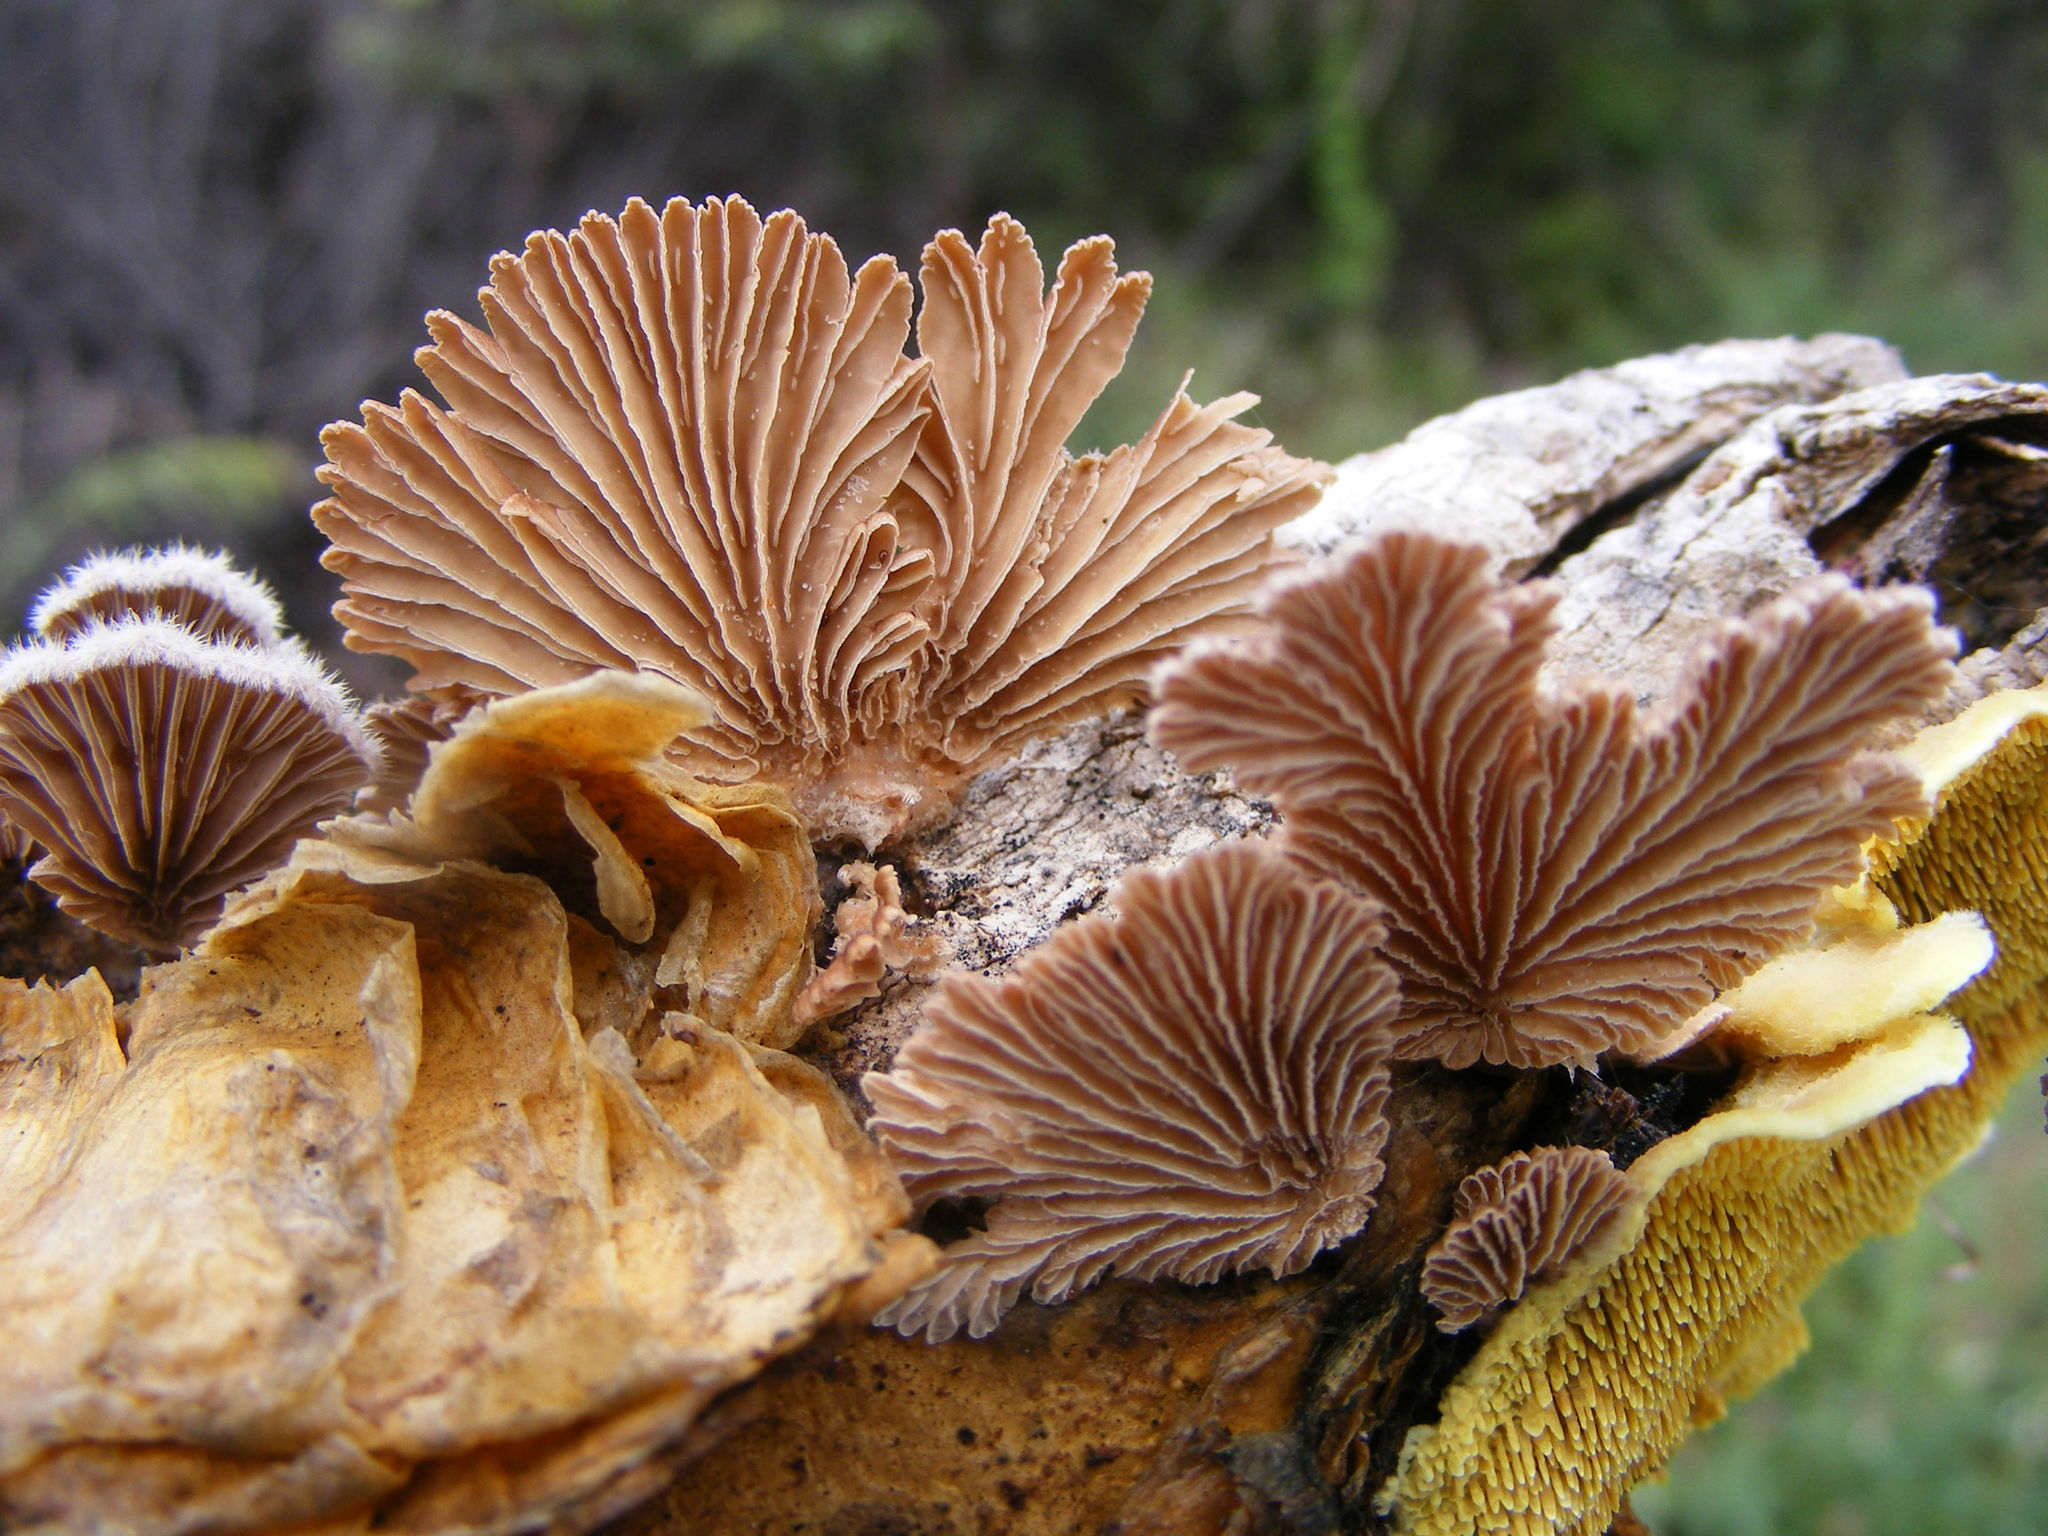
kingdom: Fungi
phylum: Basidiomycota
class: Agaricomycetes
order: Agaricales
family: Schizophyllaceae
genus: Schizophyllum
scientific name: Schizophyllum commune
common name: Common porecrust
